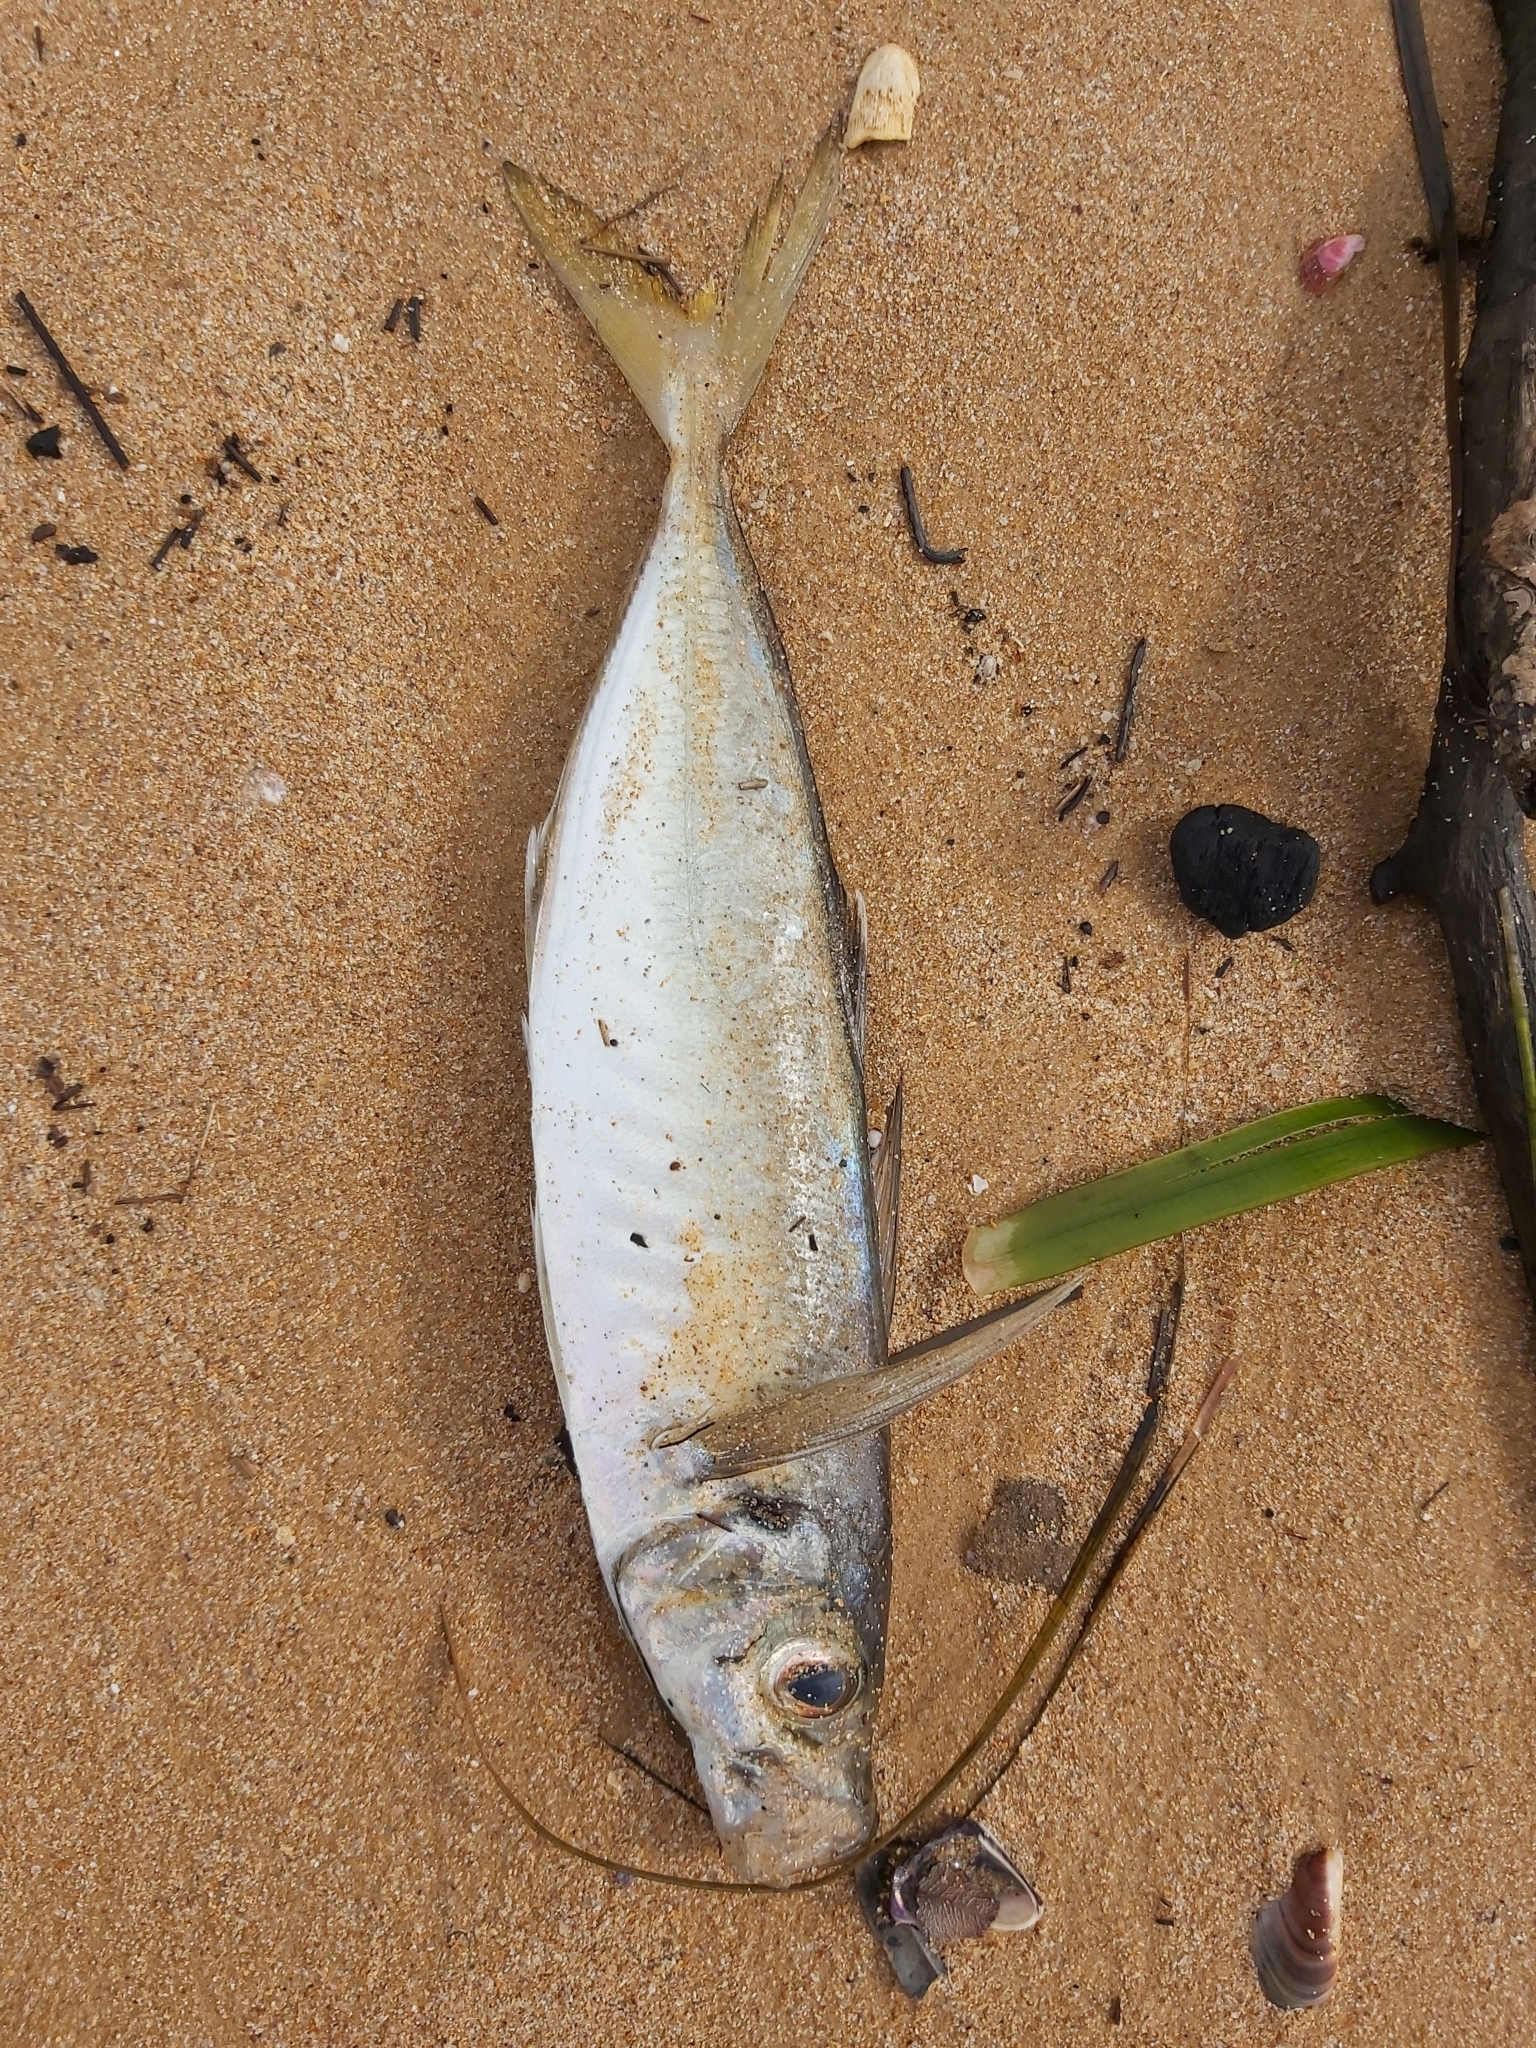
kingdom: Animalia
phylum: Chordata
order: Perciformes
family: Carangidae
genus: Trachurus
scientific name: Trachurus novaezelandiae
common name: Yellowtail horse mackerel
